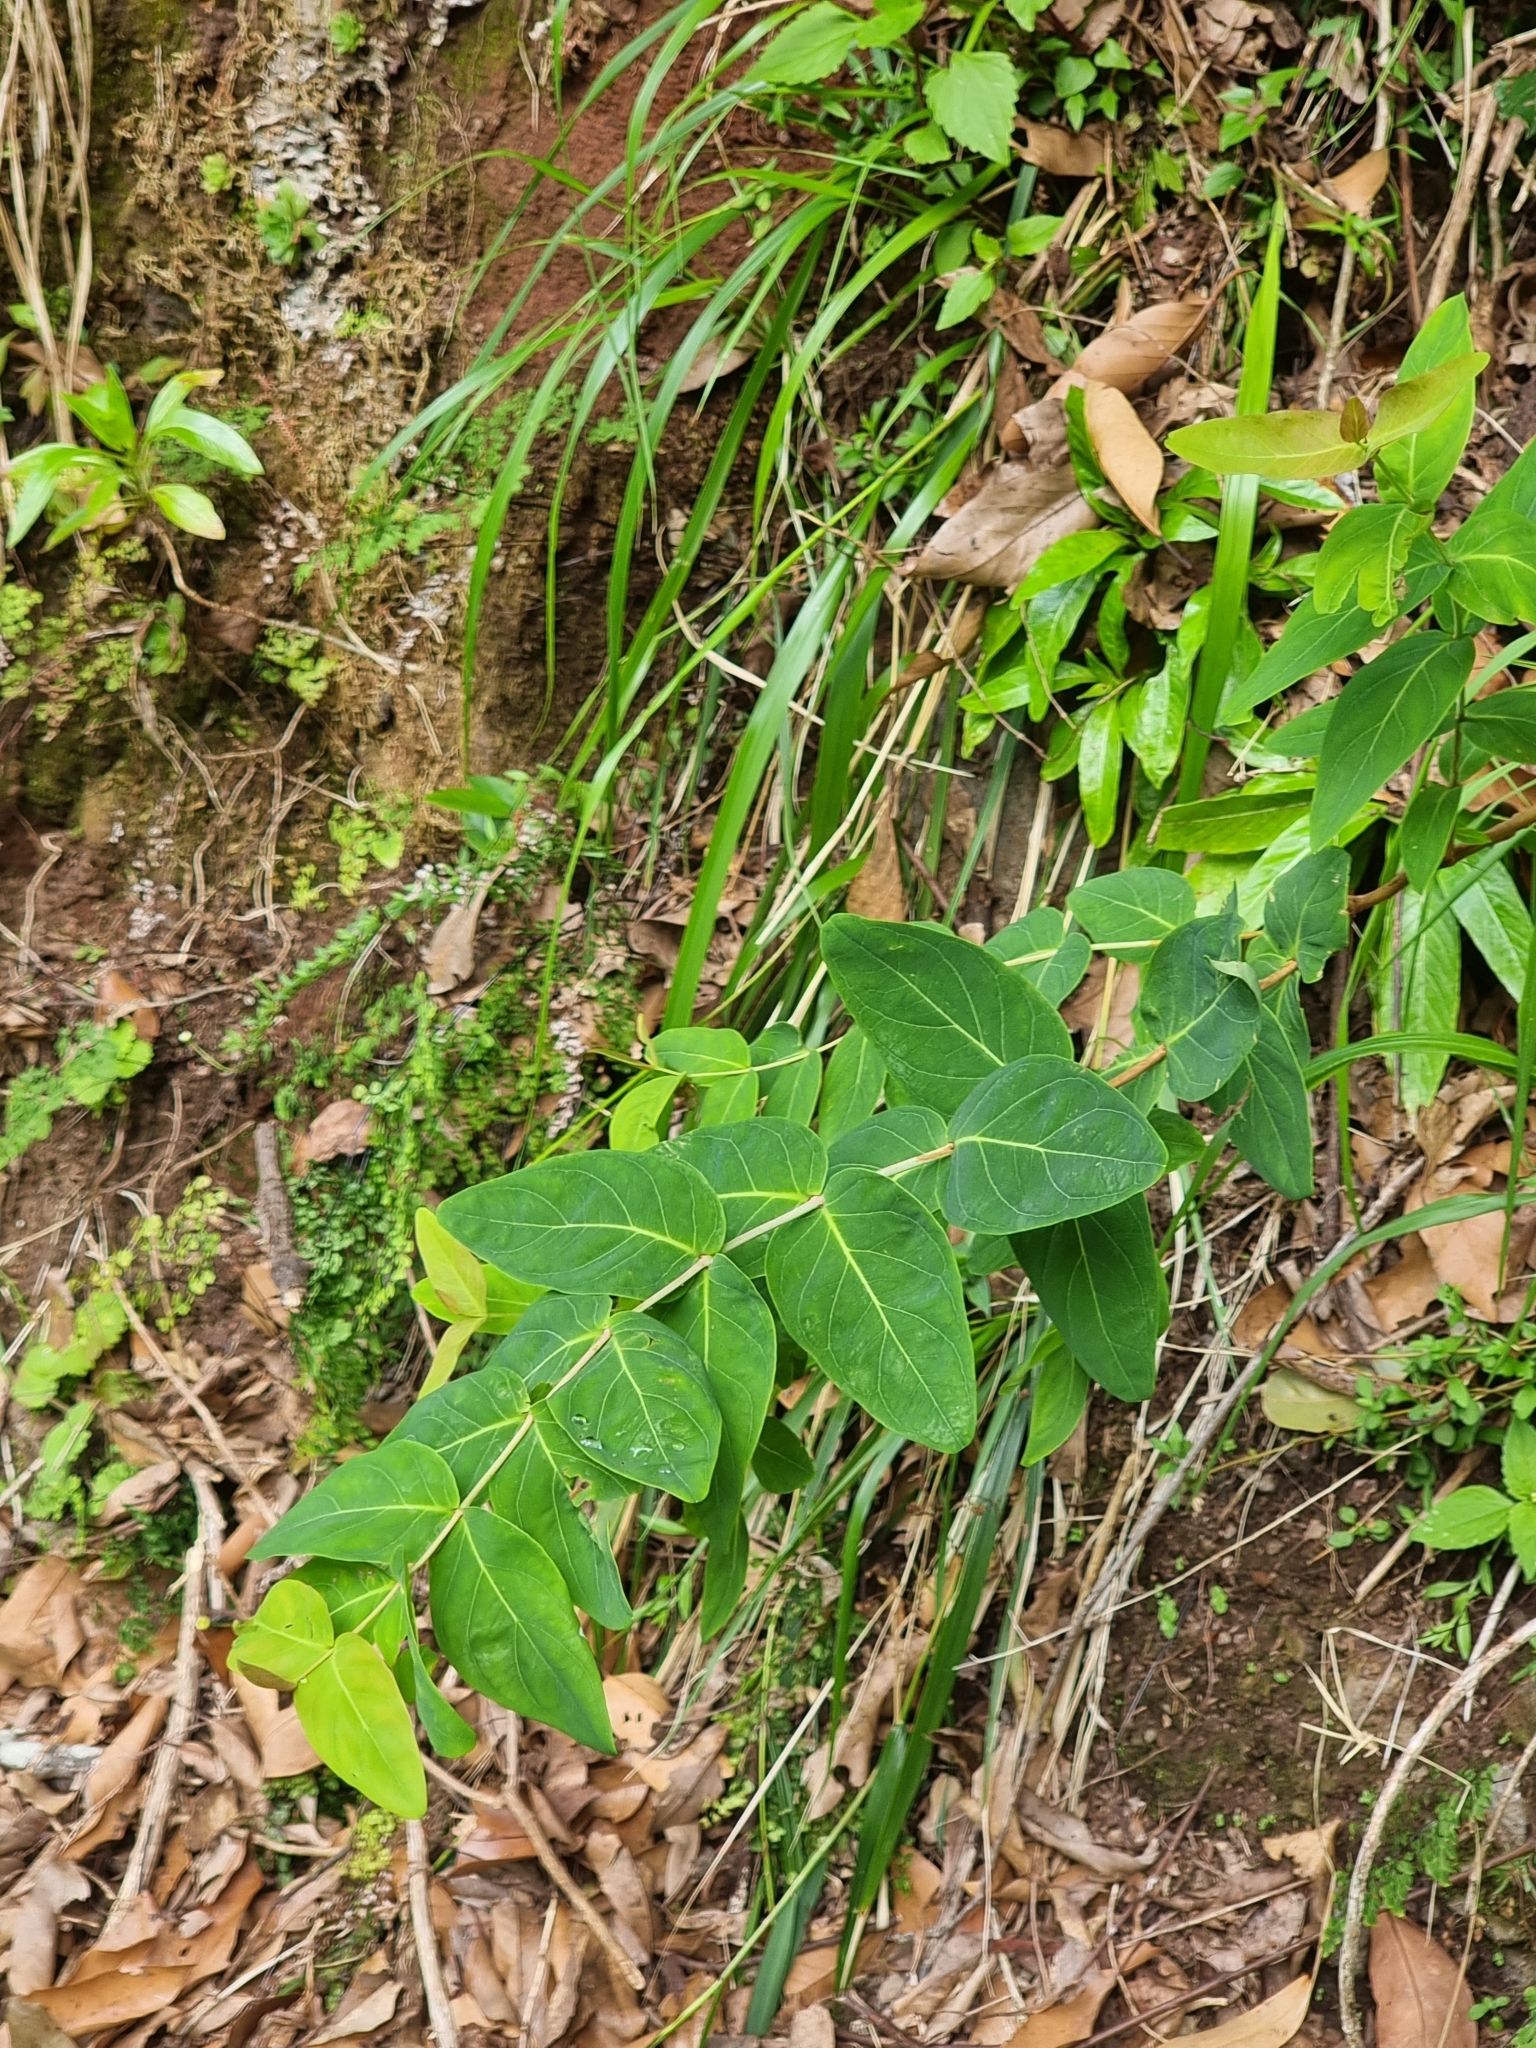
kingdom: Plantae
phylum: Tracheophyta
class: Magnoliopsida
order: Malpighiales
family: Hypericaceae
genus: Hypericum
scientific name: Hypericum grandifolium
